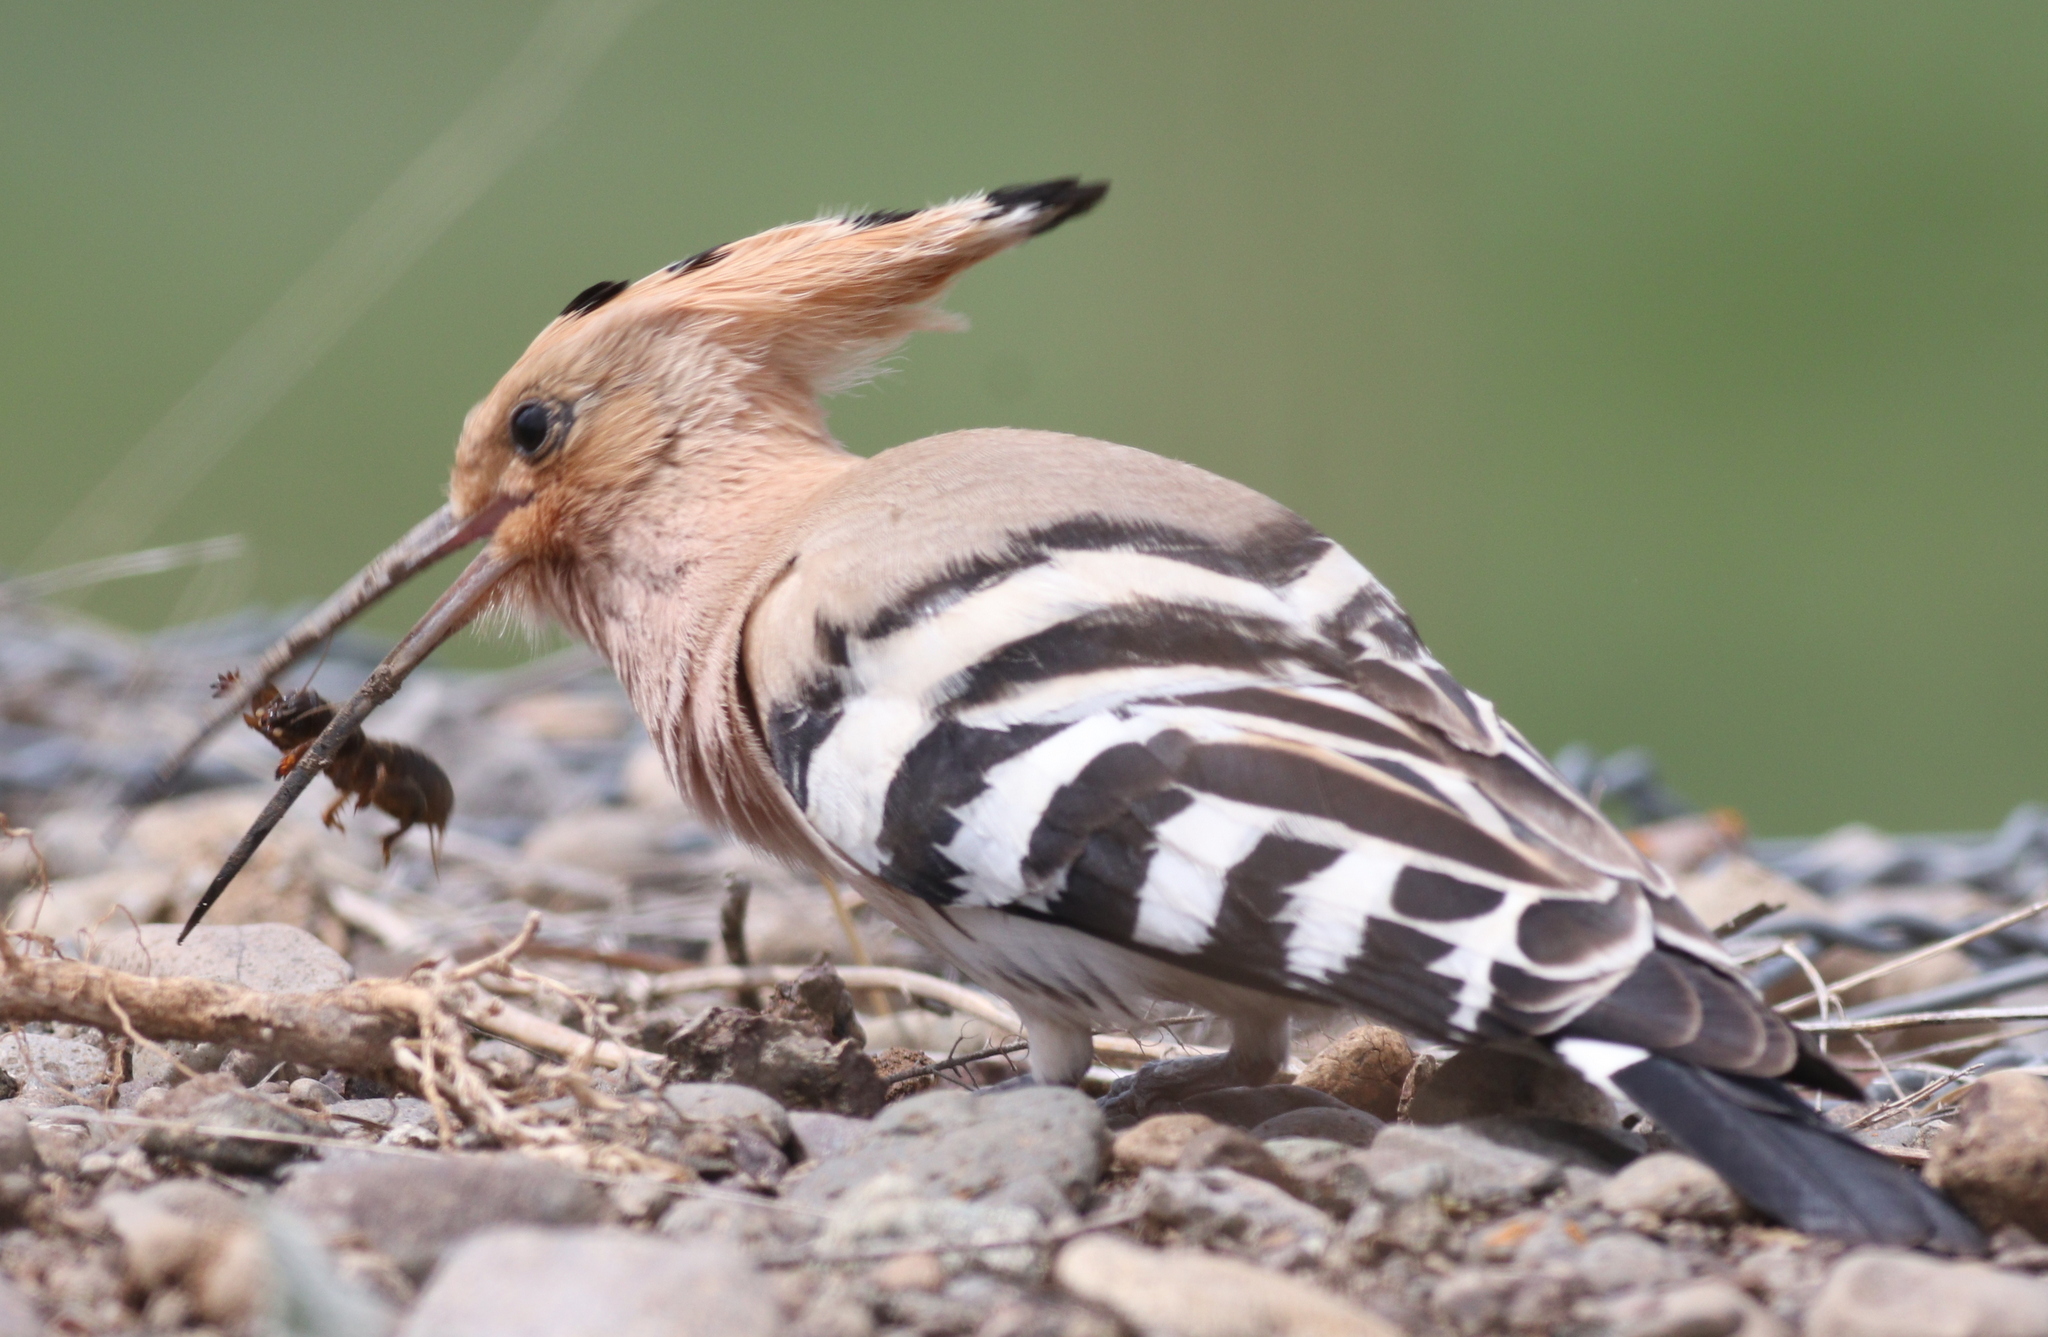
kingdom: Animalia
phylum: Chordata
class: Aves
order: Bucerotiformes
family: Upupidae
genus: Upupa
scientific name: Upupa epops
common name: Eurasian hoopoe
